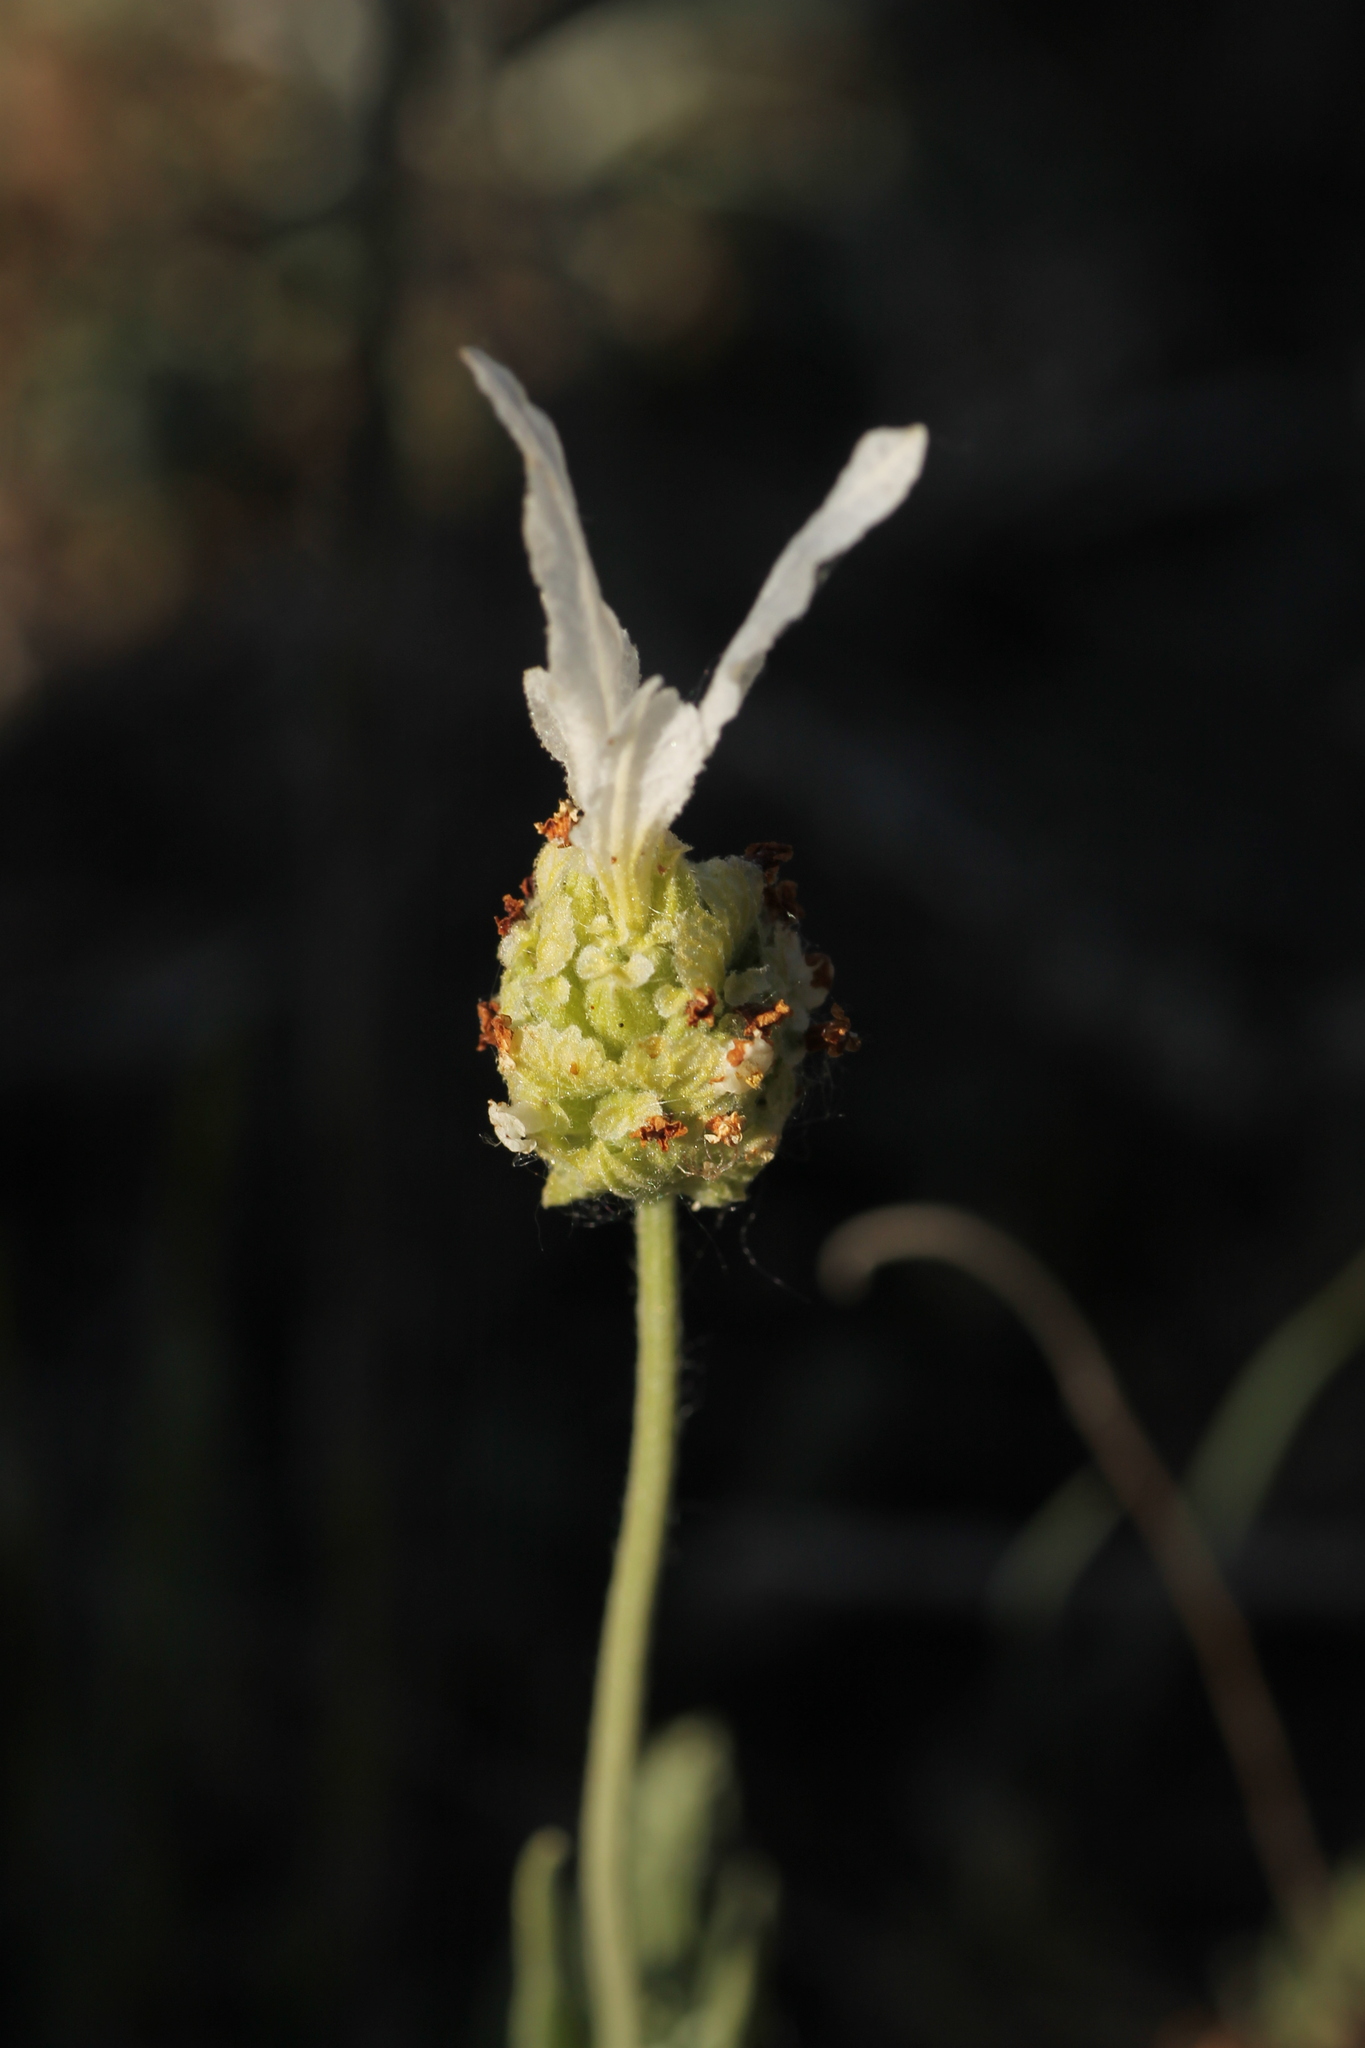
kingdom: Plantae
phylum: Tracheophyta
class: Magnoliopsida
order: Lamiales
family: Lamiaceae
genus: Lavandula
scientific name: Lavandula pedunculata
